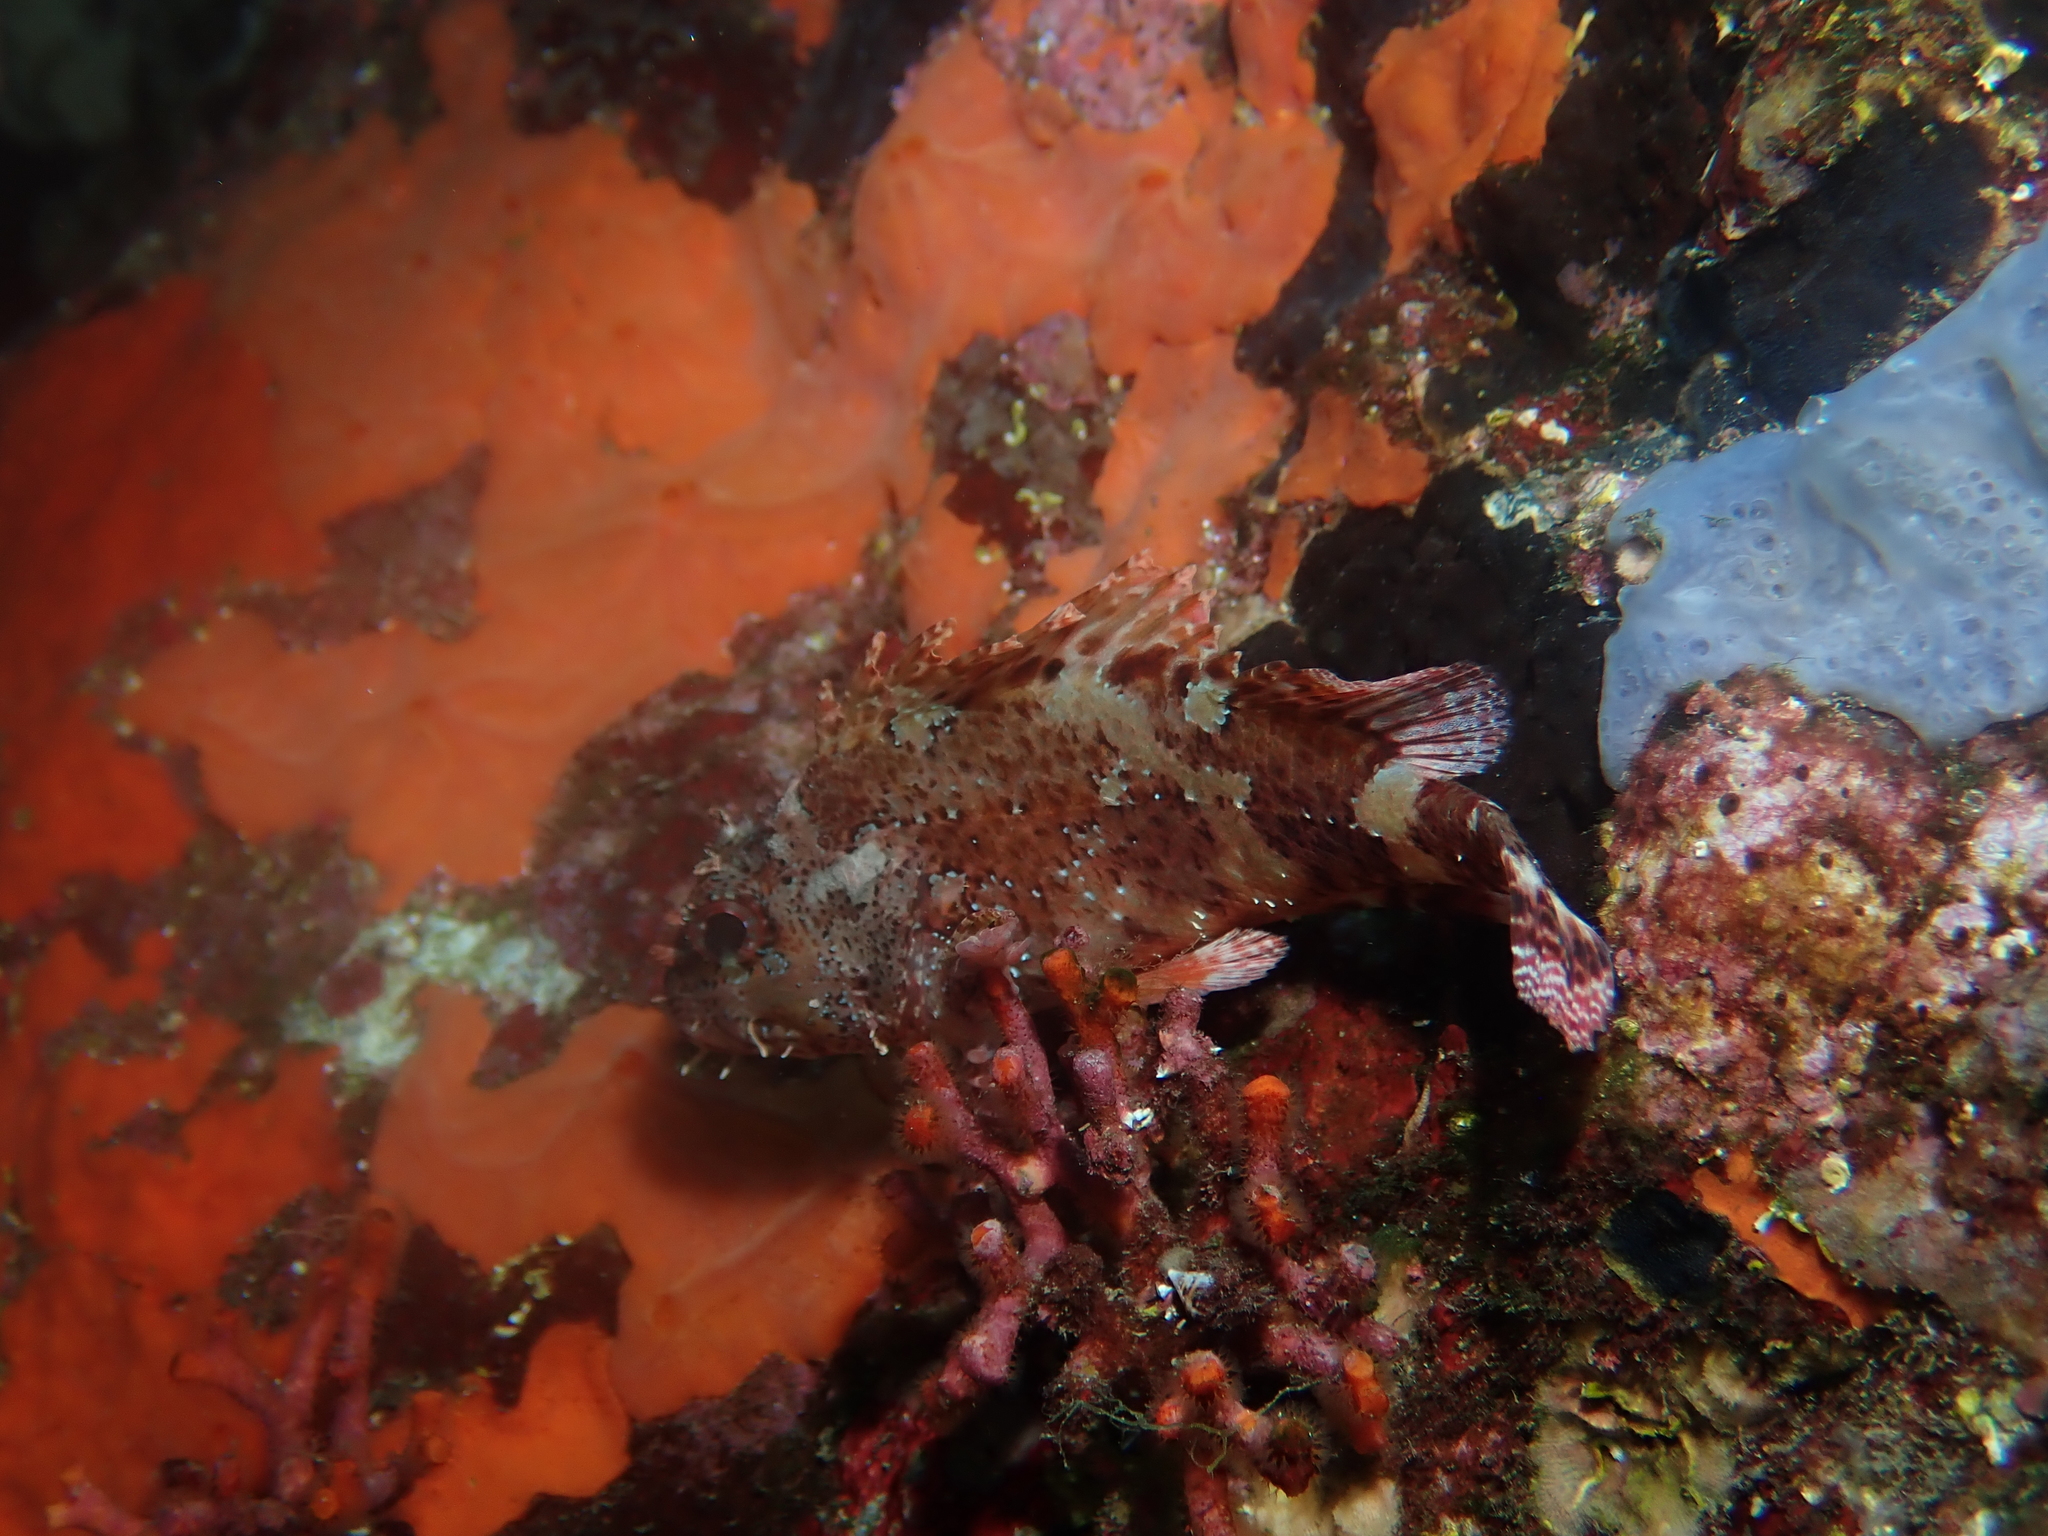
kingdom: Animalia
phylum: Chordata
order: Scorpaeniformes
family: Scorpaenidae
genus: Scorpaena
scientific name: Scorpaena maderensis
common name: Madeira rockfish
